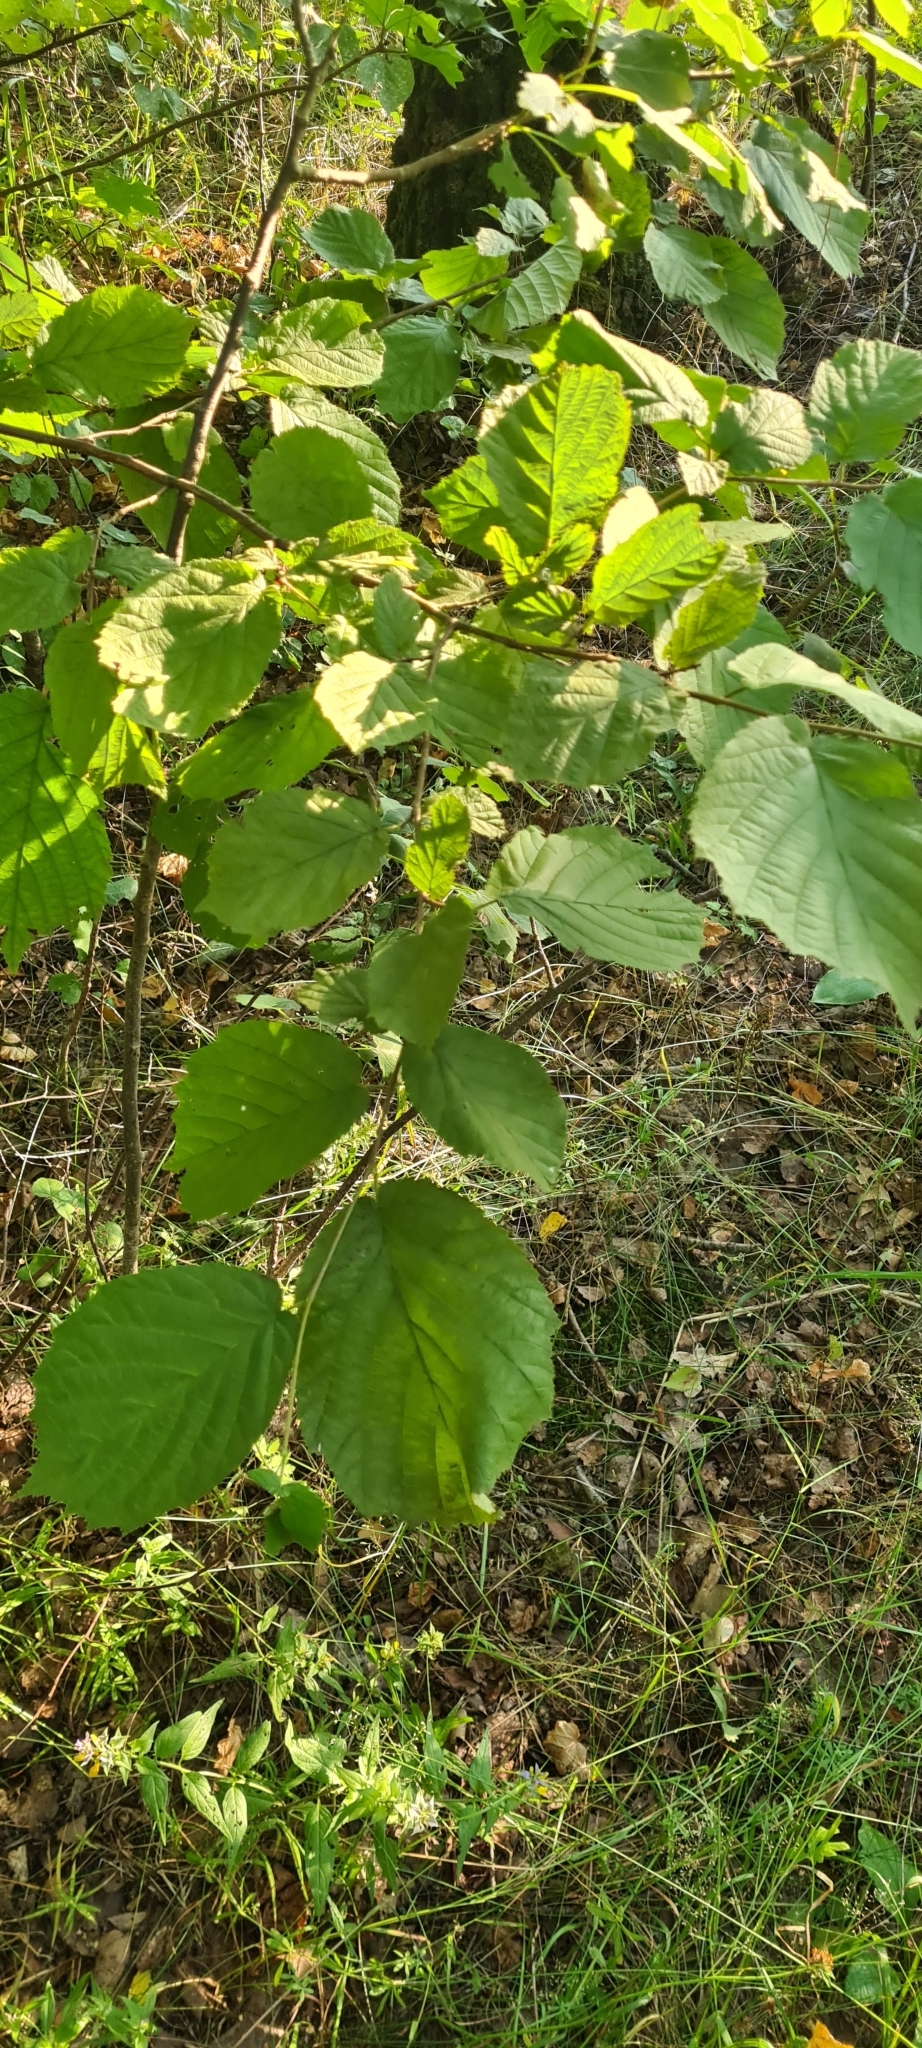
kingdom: Plantae
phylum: Tracheophyta
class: Magnoliopsida
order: Fagales
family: Betulaceae
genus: Corylus
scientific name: Corylus avellana
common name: European hazel
